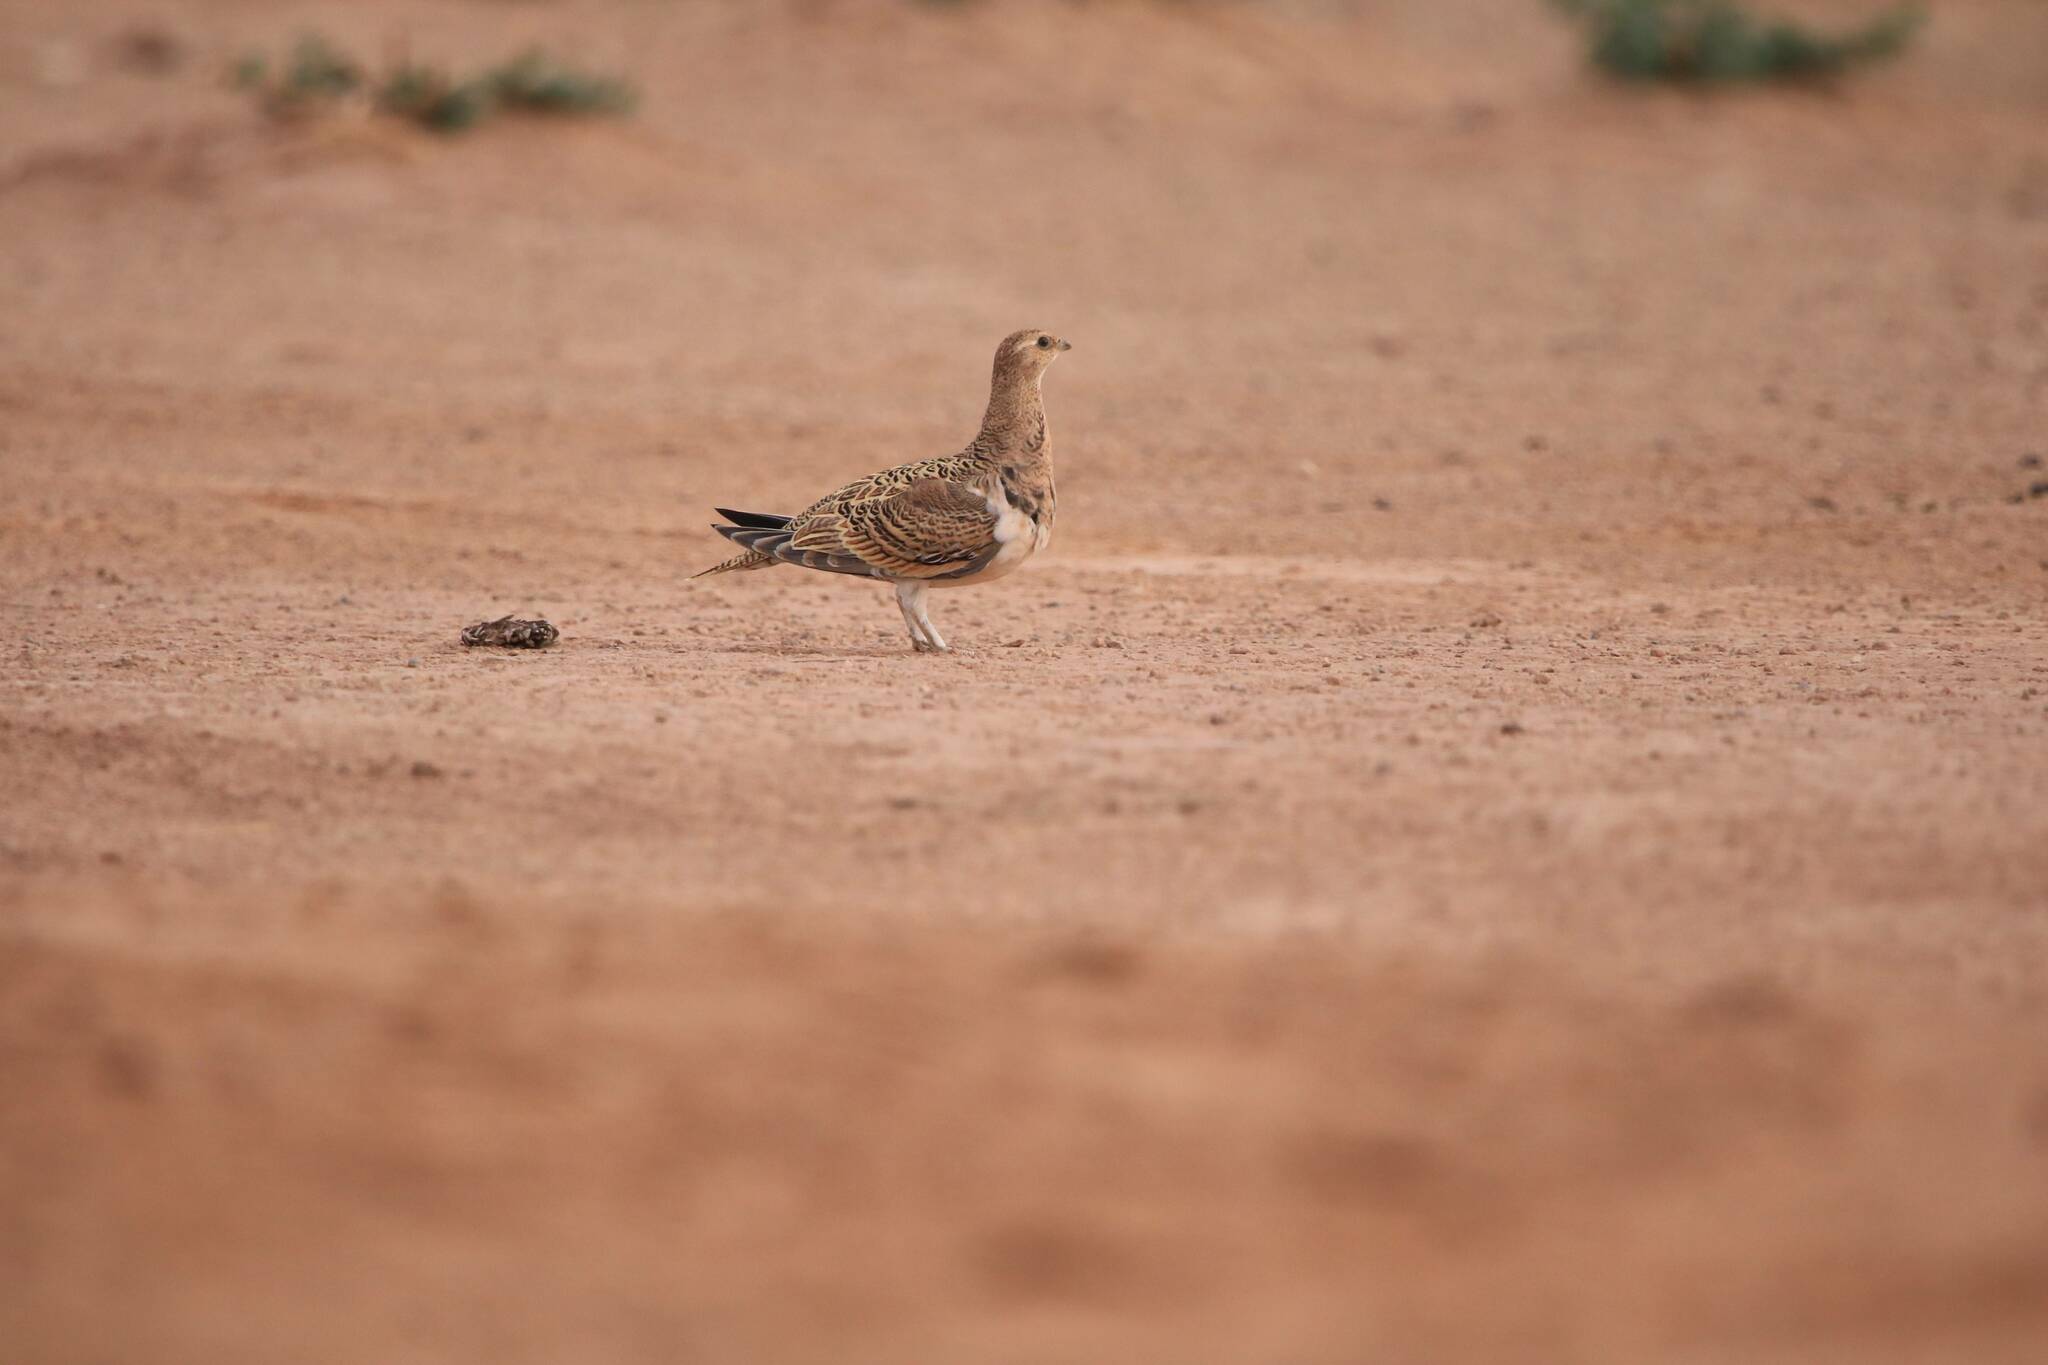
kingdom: Animalia
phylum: Chordata
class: Aves
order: Pteroclidiformes
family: Pteroclididae
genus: Pterocles
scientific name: Pterocles alchata
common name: Pin-tailed sandgrouse
